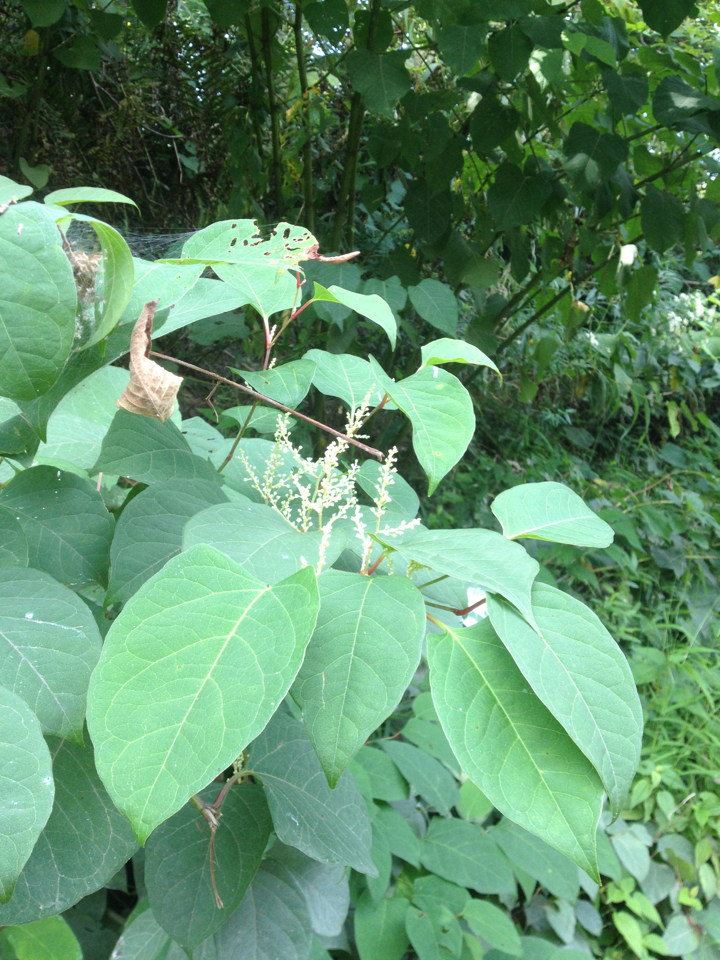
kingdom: Plantae
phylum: Tracheophyta
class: Magnoliopsida
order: Caryophyllales
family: Polygonaceae
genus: Reynoutria
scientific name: Reynoutria japonica
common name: Japanese knotweed
